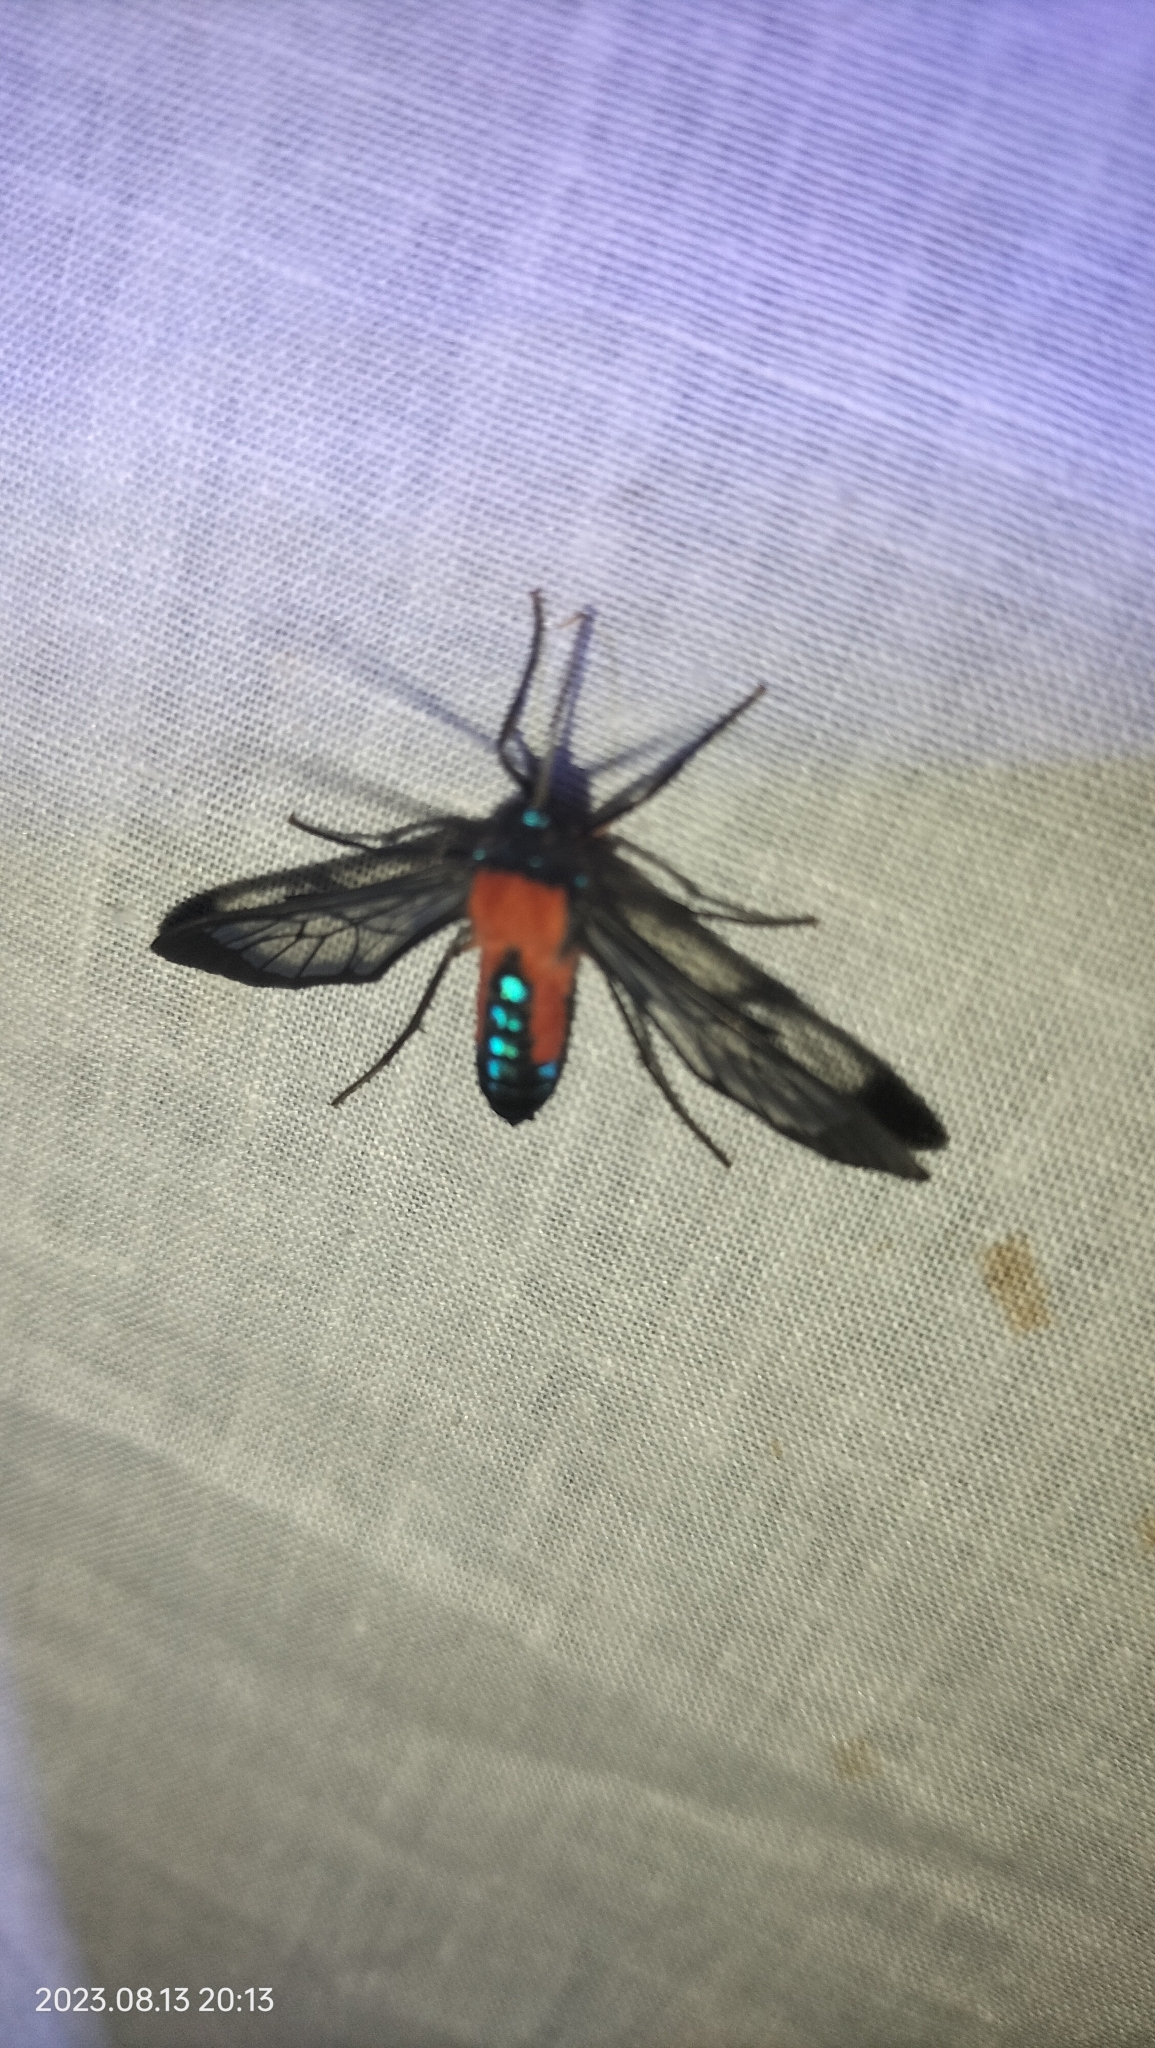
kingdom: Animalia
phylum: Arthropoda
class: Insecta
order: Lepidoptera
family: Erebidae
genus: Cosmosoma
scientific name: Cosmosoma oroyana
